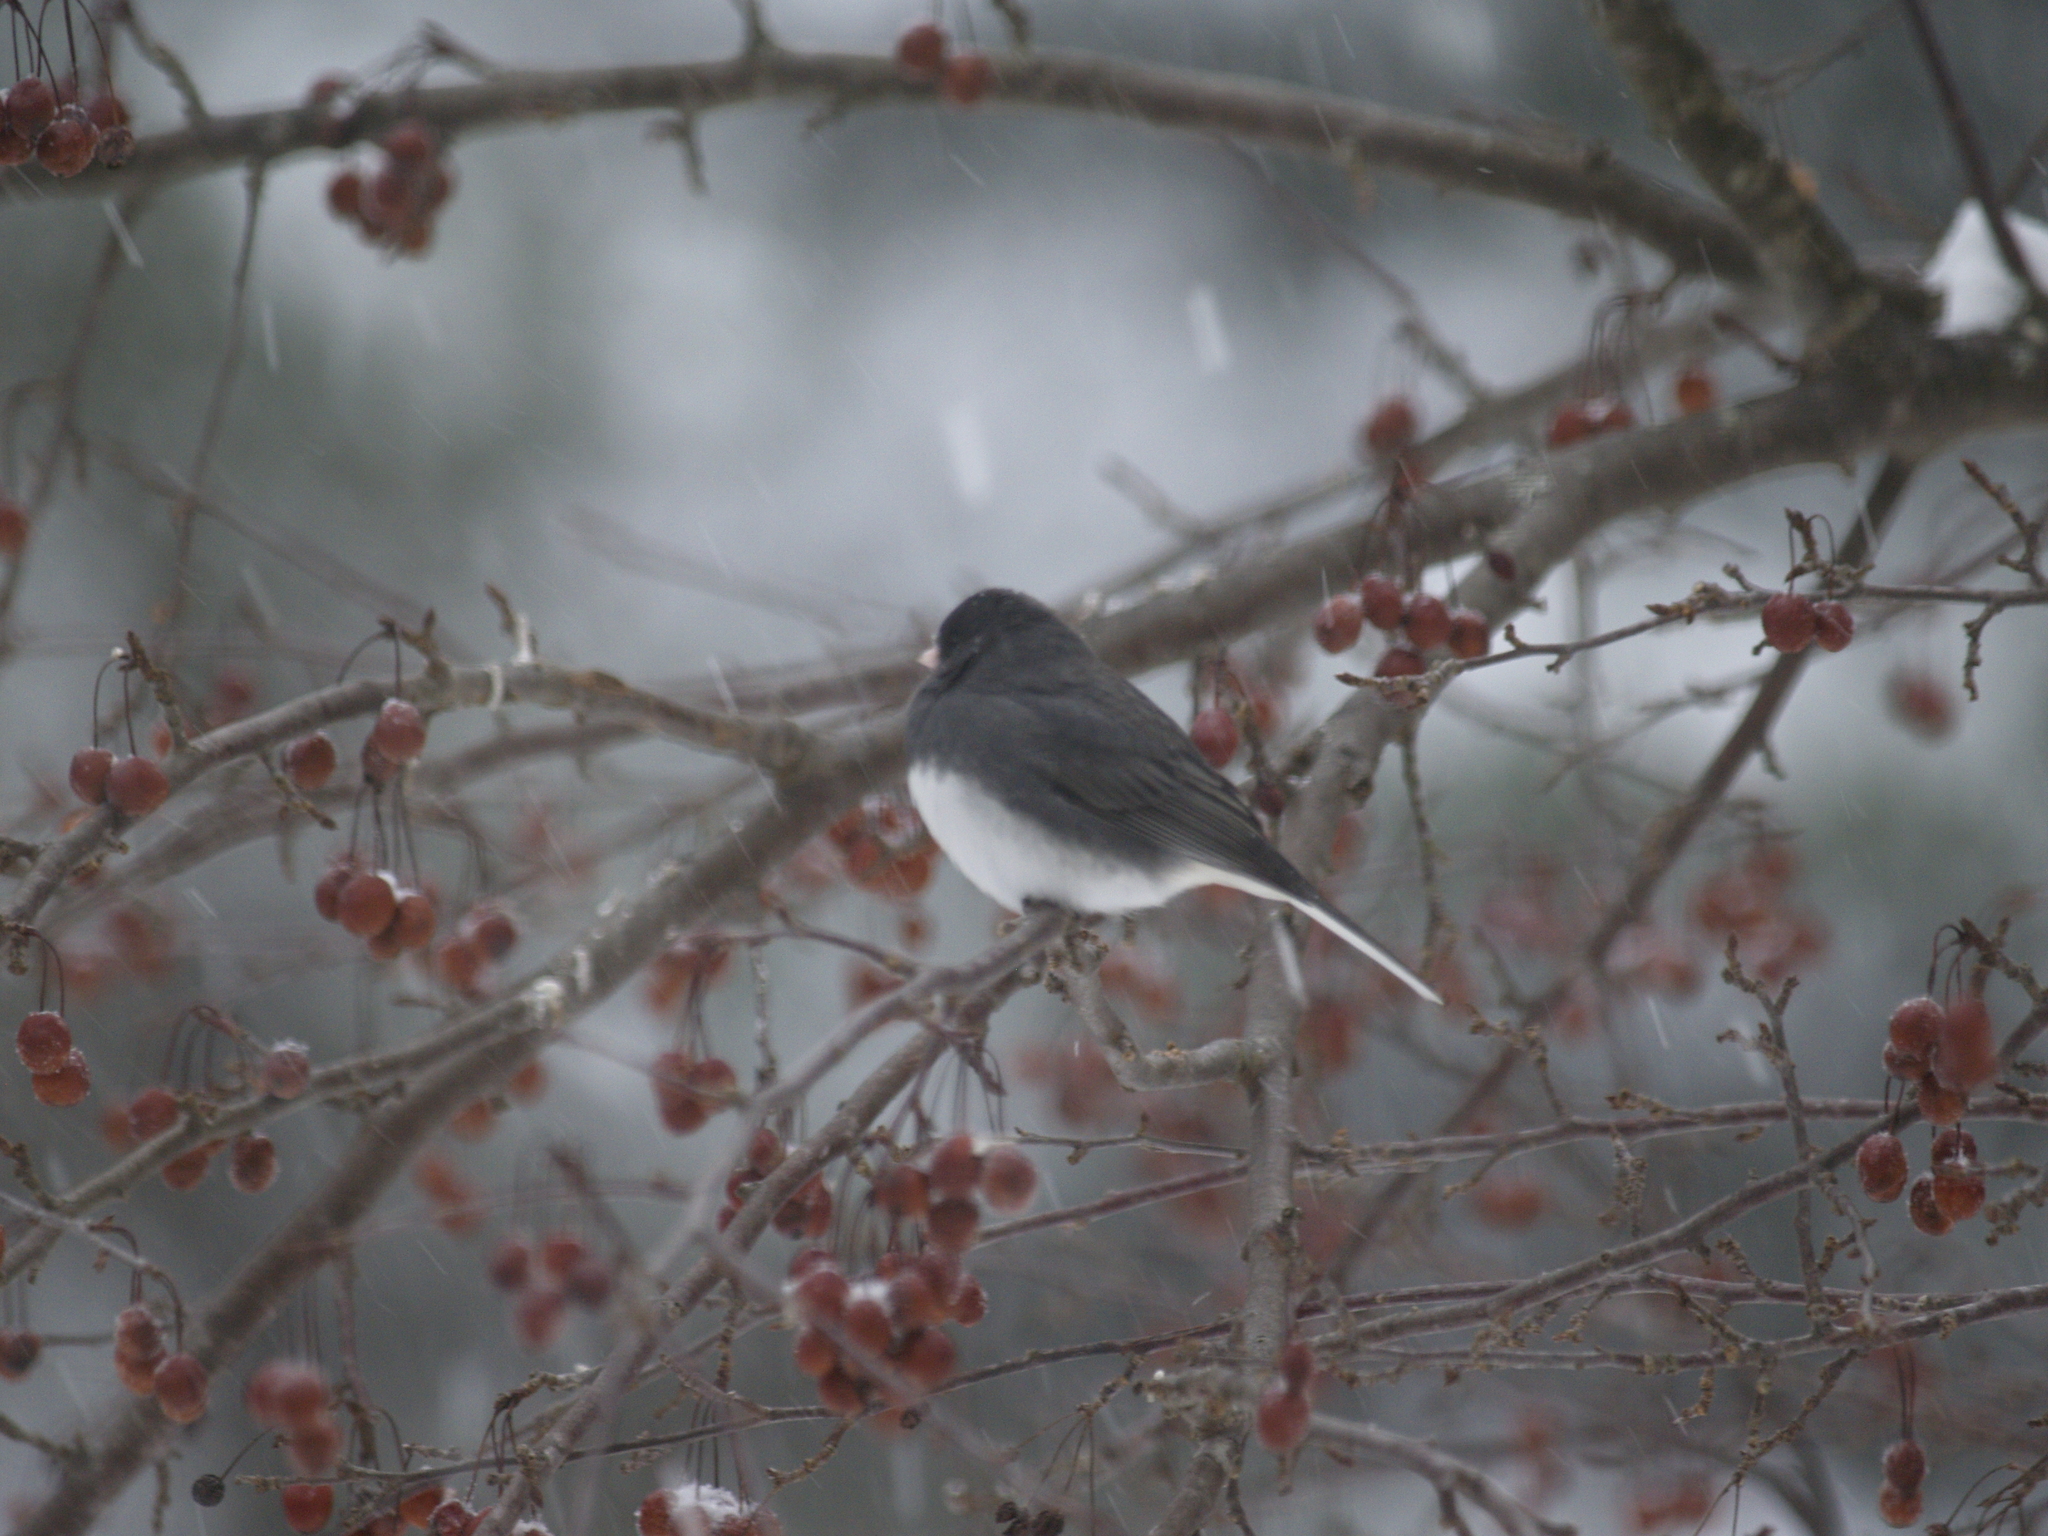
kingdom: Animalia
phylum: Chordata
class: Aves
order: Passeriformes
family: Passerellidae
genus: Junco
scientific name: Junco hyemalis
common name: Dark-eyed junco
